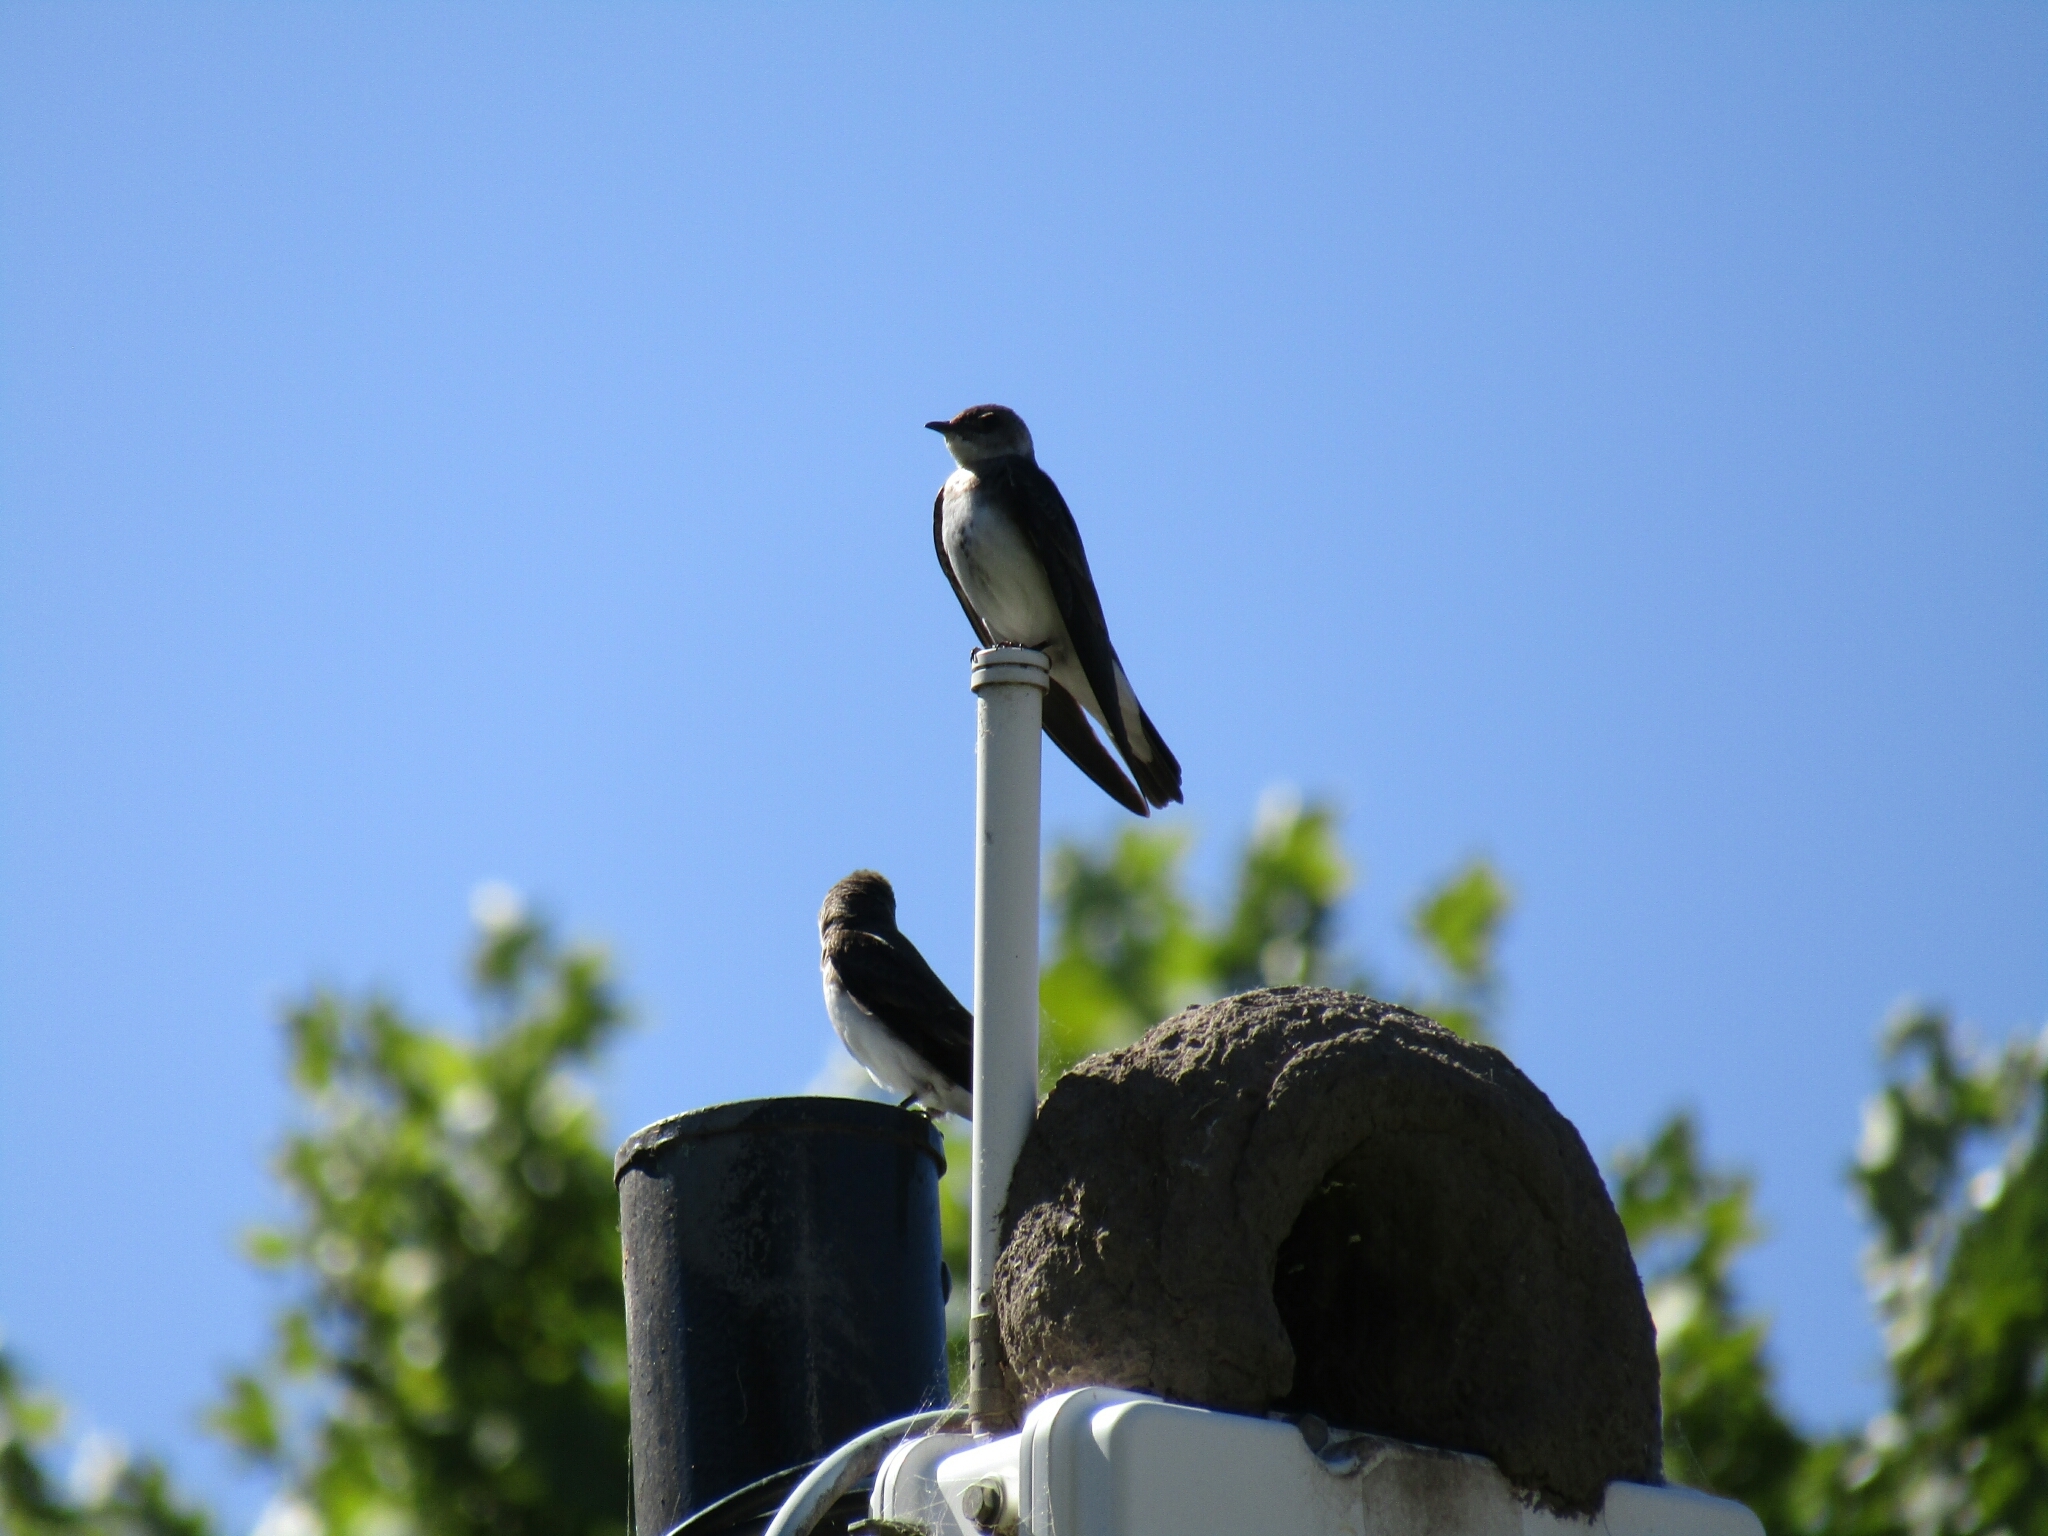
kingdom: Animalia
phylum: Chordata
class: Aves
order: Passeriformes
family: Hirundinidae
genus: Progne
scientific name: Progne tapera
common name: Brown-chested martin
